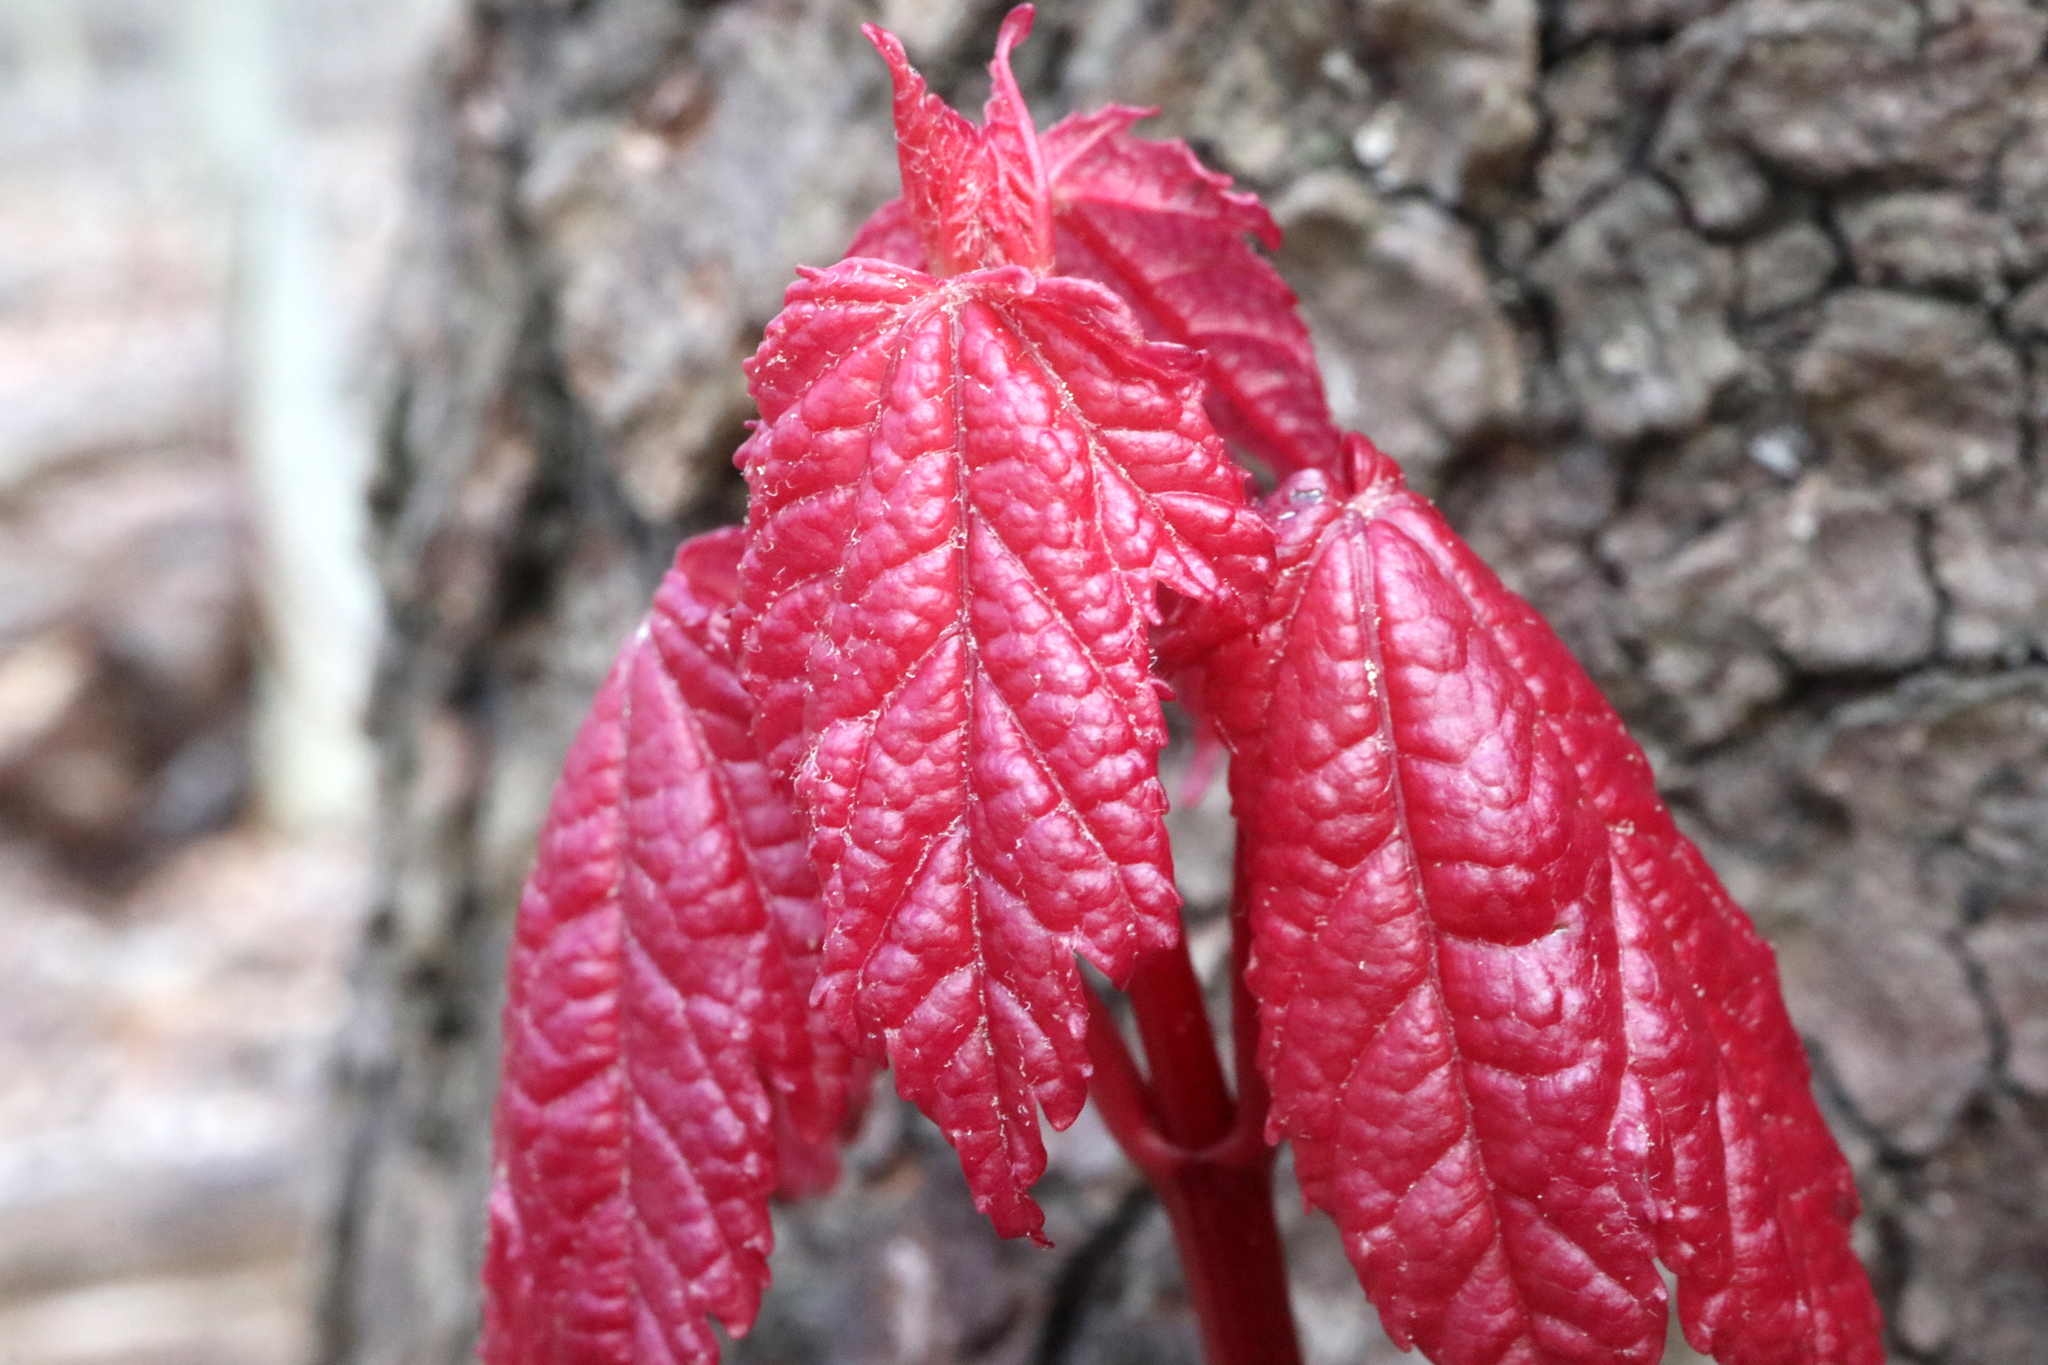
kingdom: Plantae
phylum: Tracheophyta
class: Magnoliopsida
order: Sapindales
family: Sapindaceae
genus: Acer
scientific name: Acer rubrum
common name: Red maple
